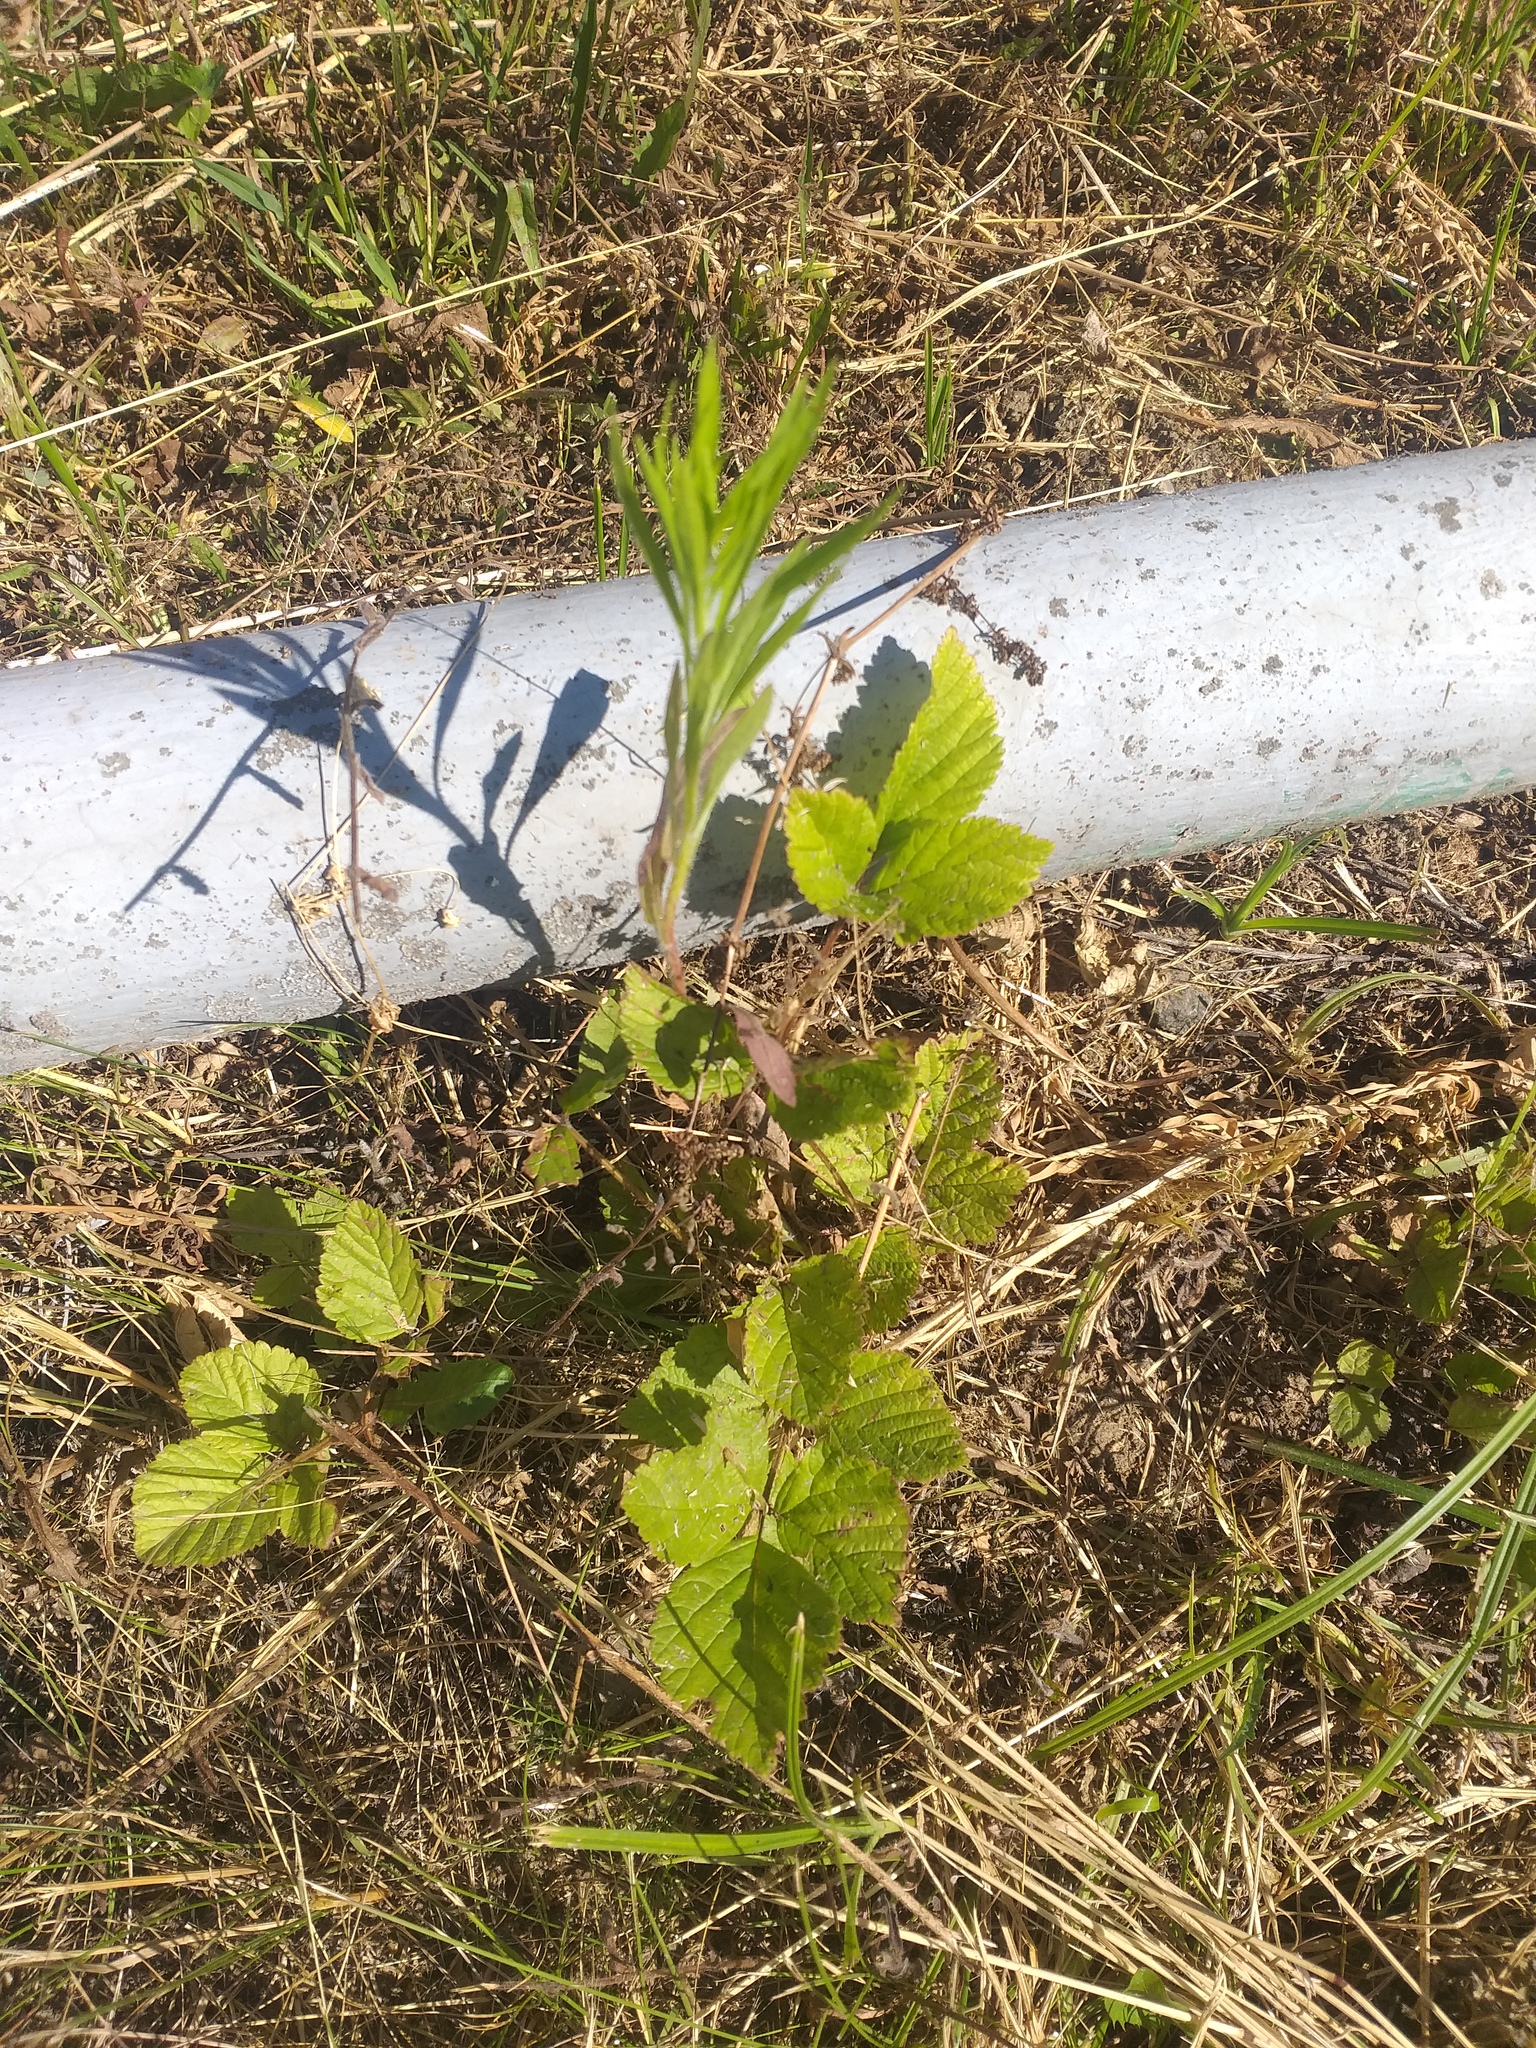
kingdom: Plantae
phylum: Tracheophyta
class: Magnoliopsida
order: Rosales
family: Rosaceae
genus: Rubus
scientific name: Rubus saxatilis
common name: Stone bramble
